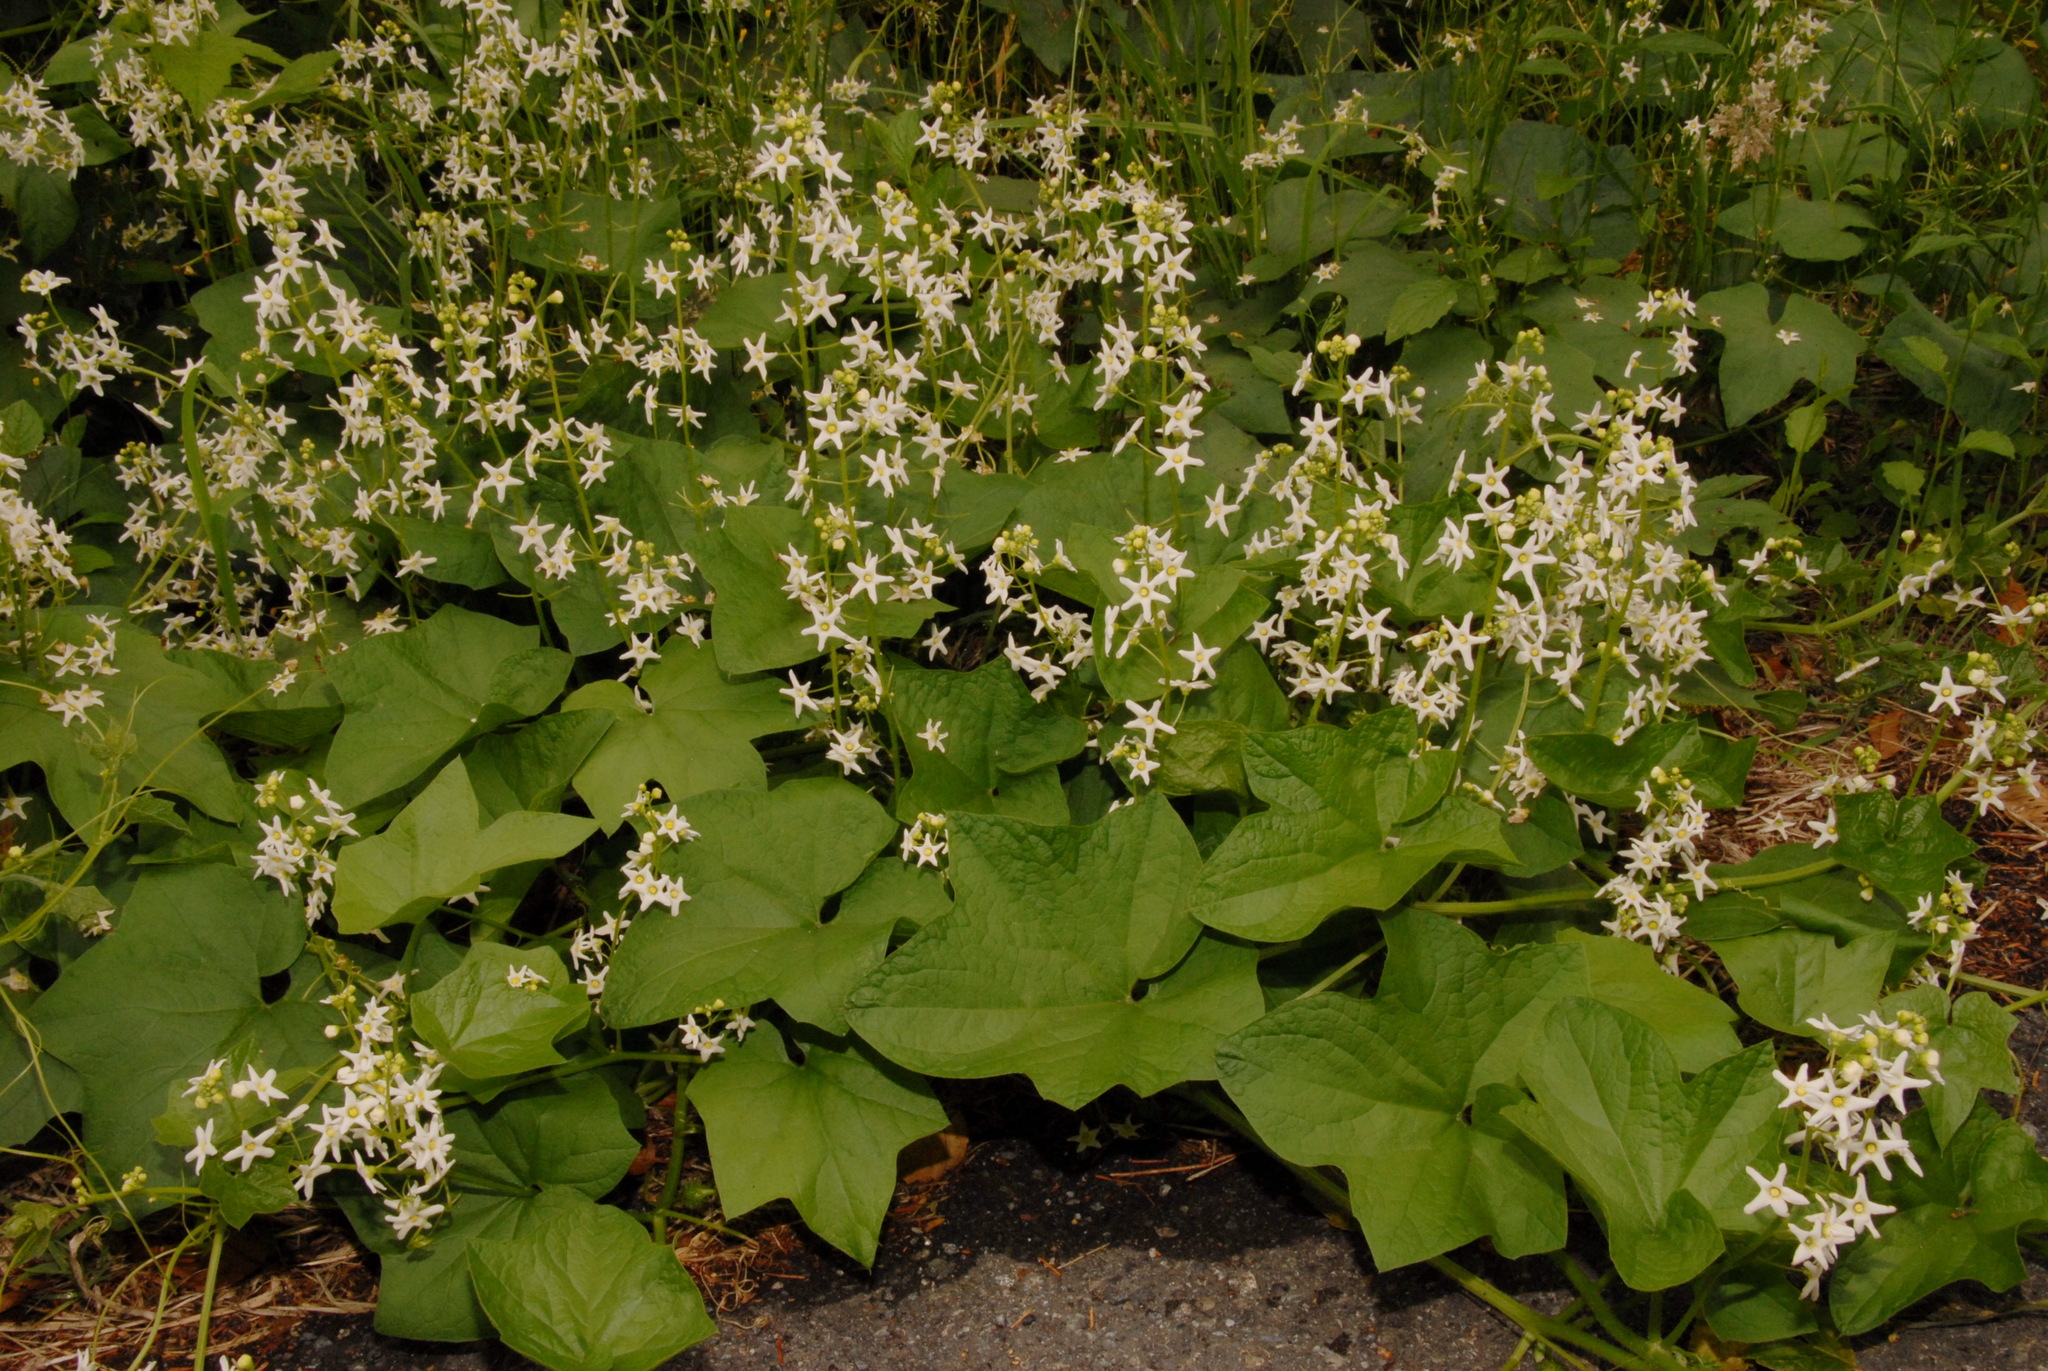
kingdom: Plantae
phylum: Tracheophyta
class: Magnoliopsida
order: Cucurbitales
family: Cucurbitaceae
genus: Marah
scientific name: Marah oregana
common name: Coastal manroot
